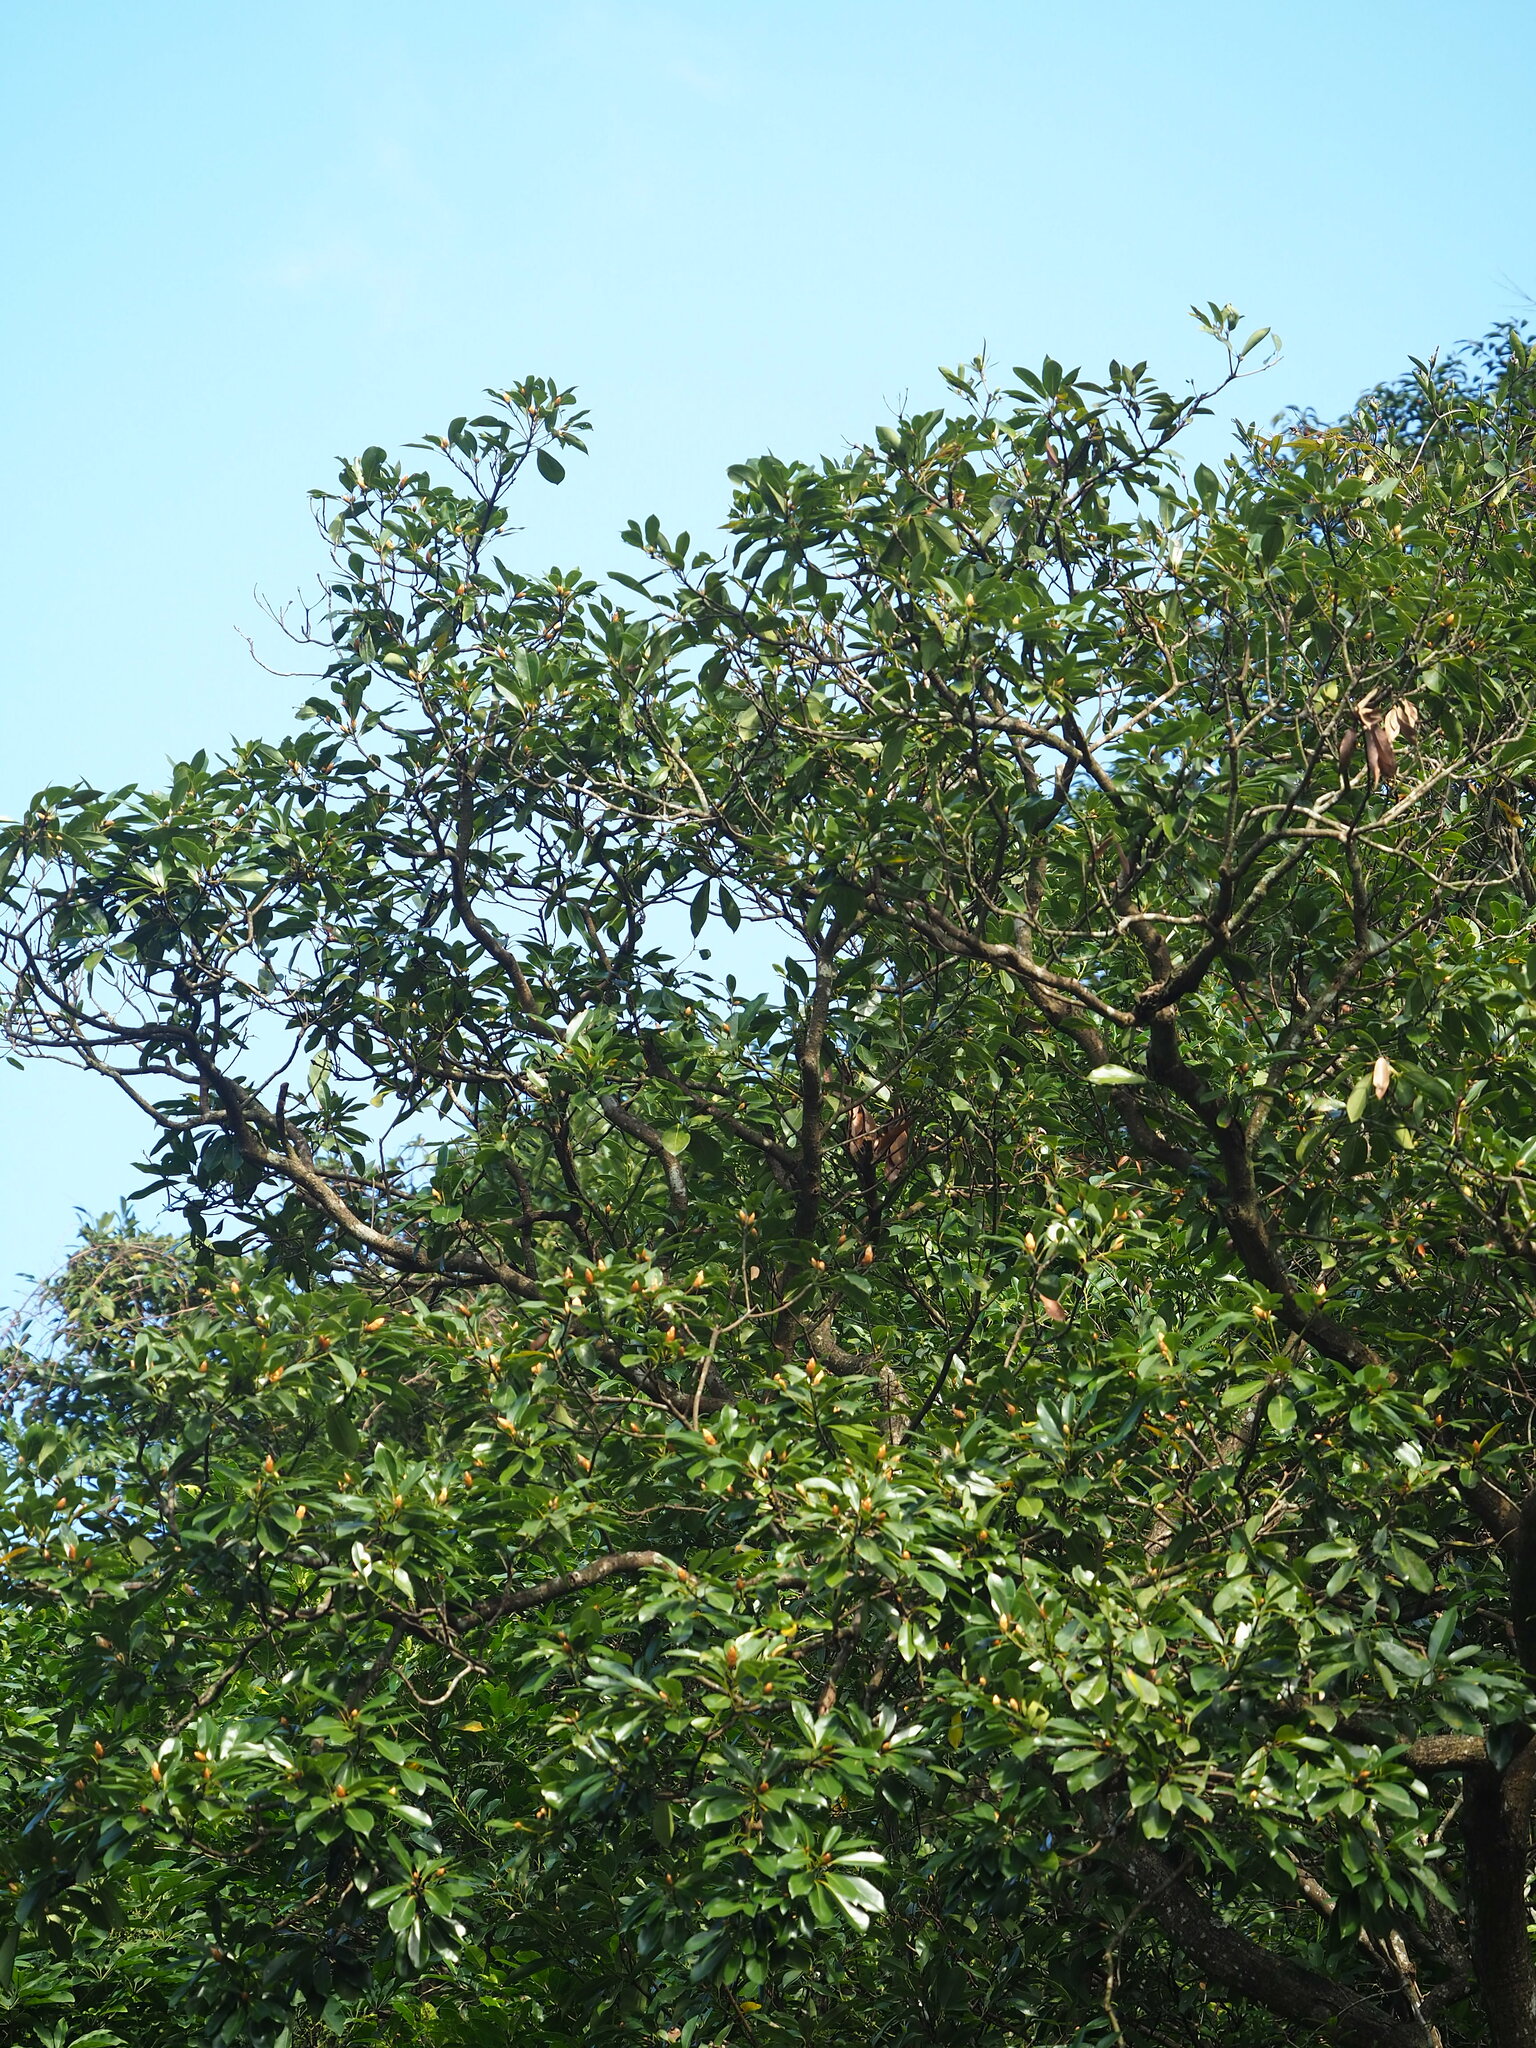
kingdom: Plantae
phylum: Tracheophyta
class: Magnoliopsida
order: Laurales
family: Lauraceae
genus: Machilus
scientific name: Machilus thunbergii
